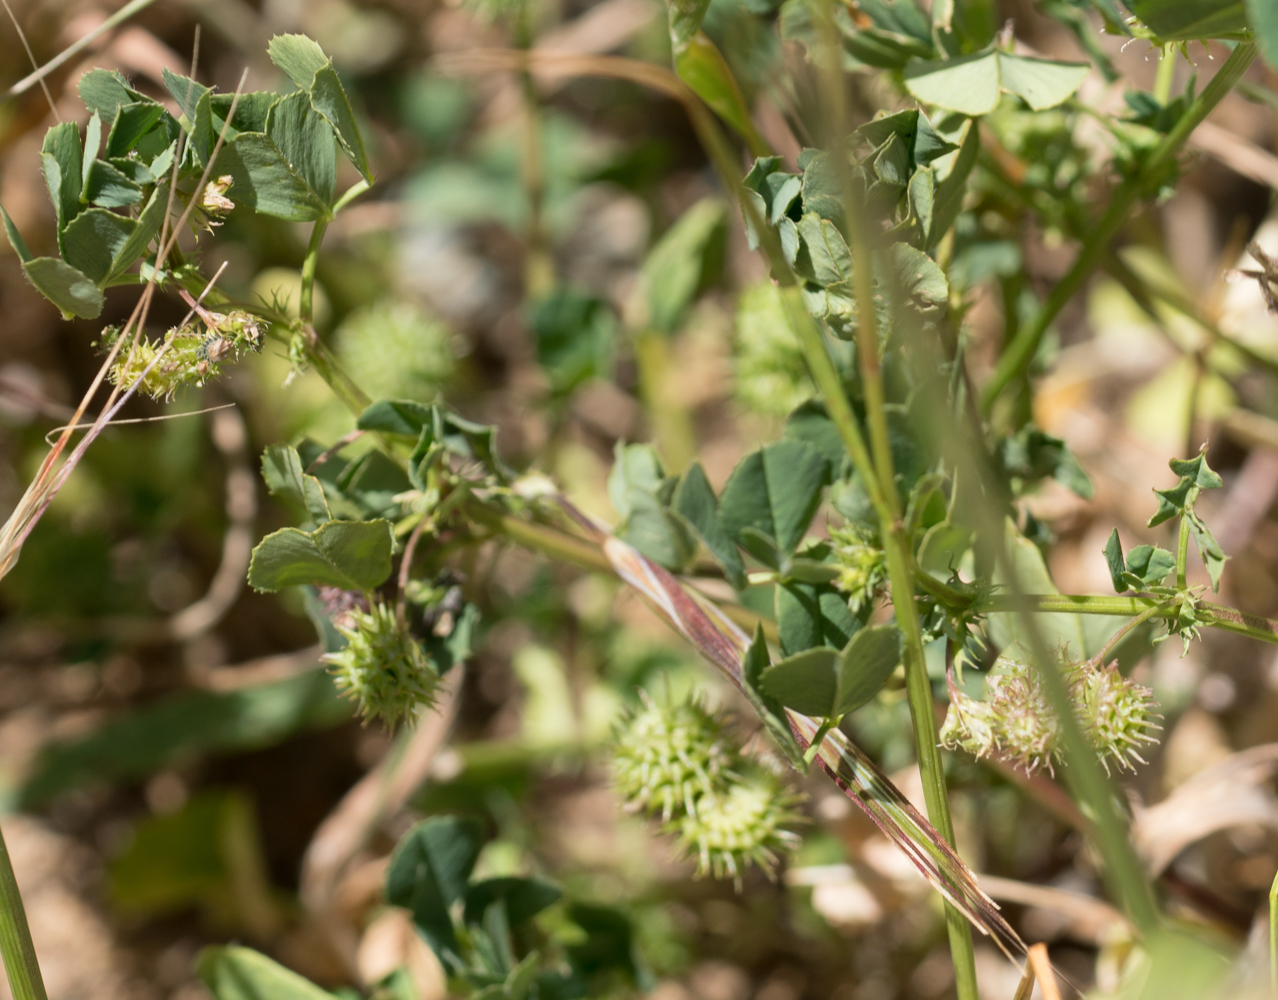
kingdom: Plantae
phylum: Tracheophyta
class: Magnoliopsida
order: Fabales
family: Fabaceae
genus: Medicago
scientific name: Medicago polymorpha
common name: Burclover
